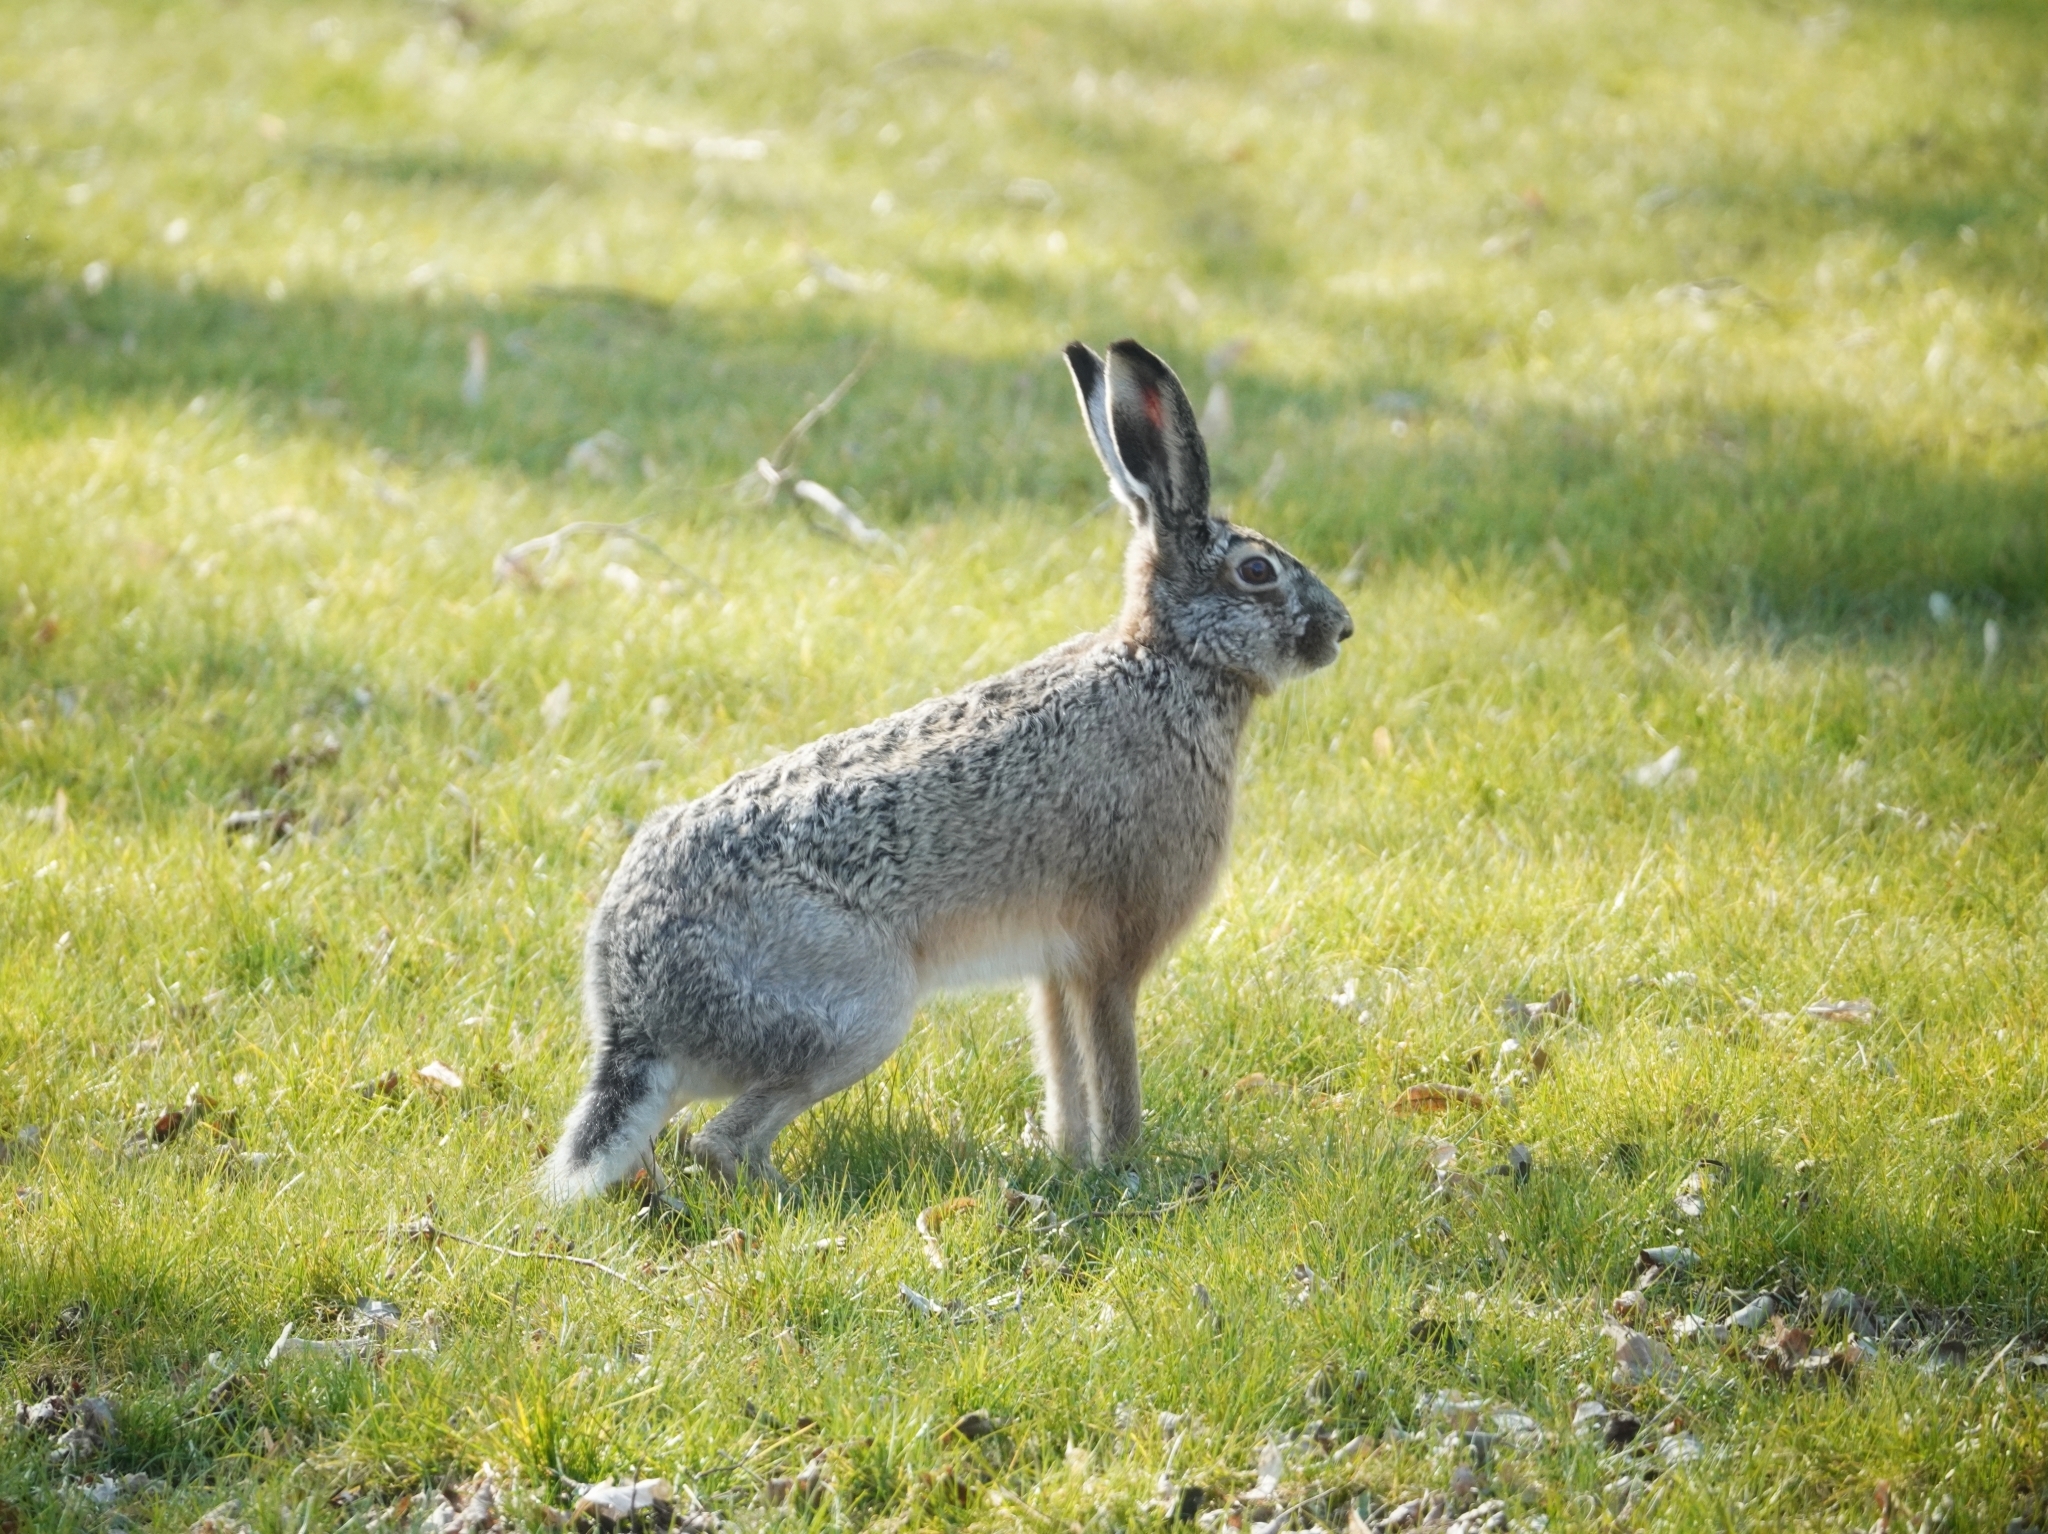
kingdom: Animalia
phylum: Chordata
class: Mammalia
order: Lagomorpha
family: Leporidae
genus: Lepus
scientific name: Lepus europaeus
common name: European hare
